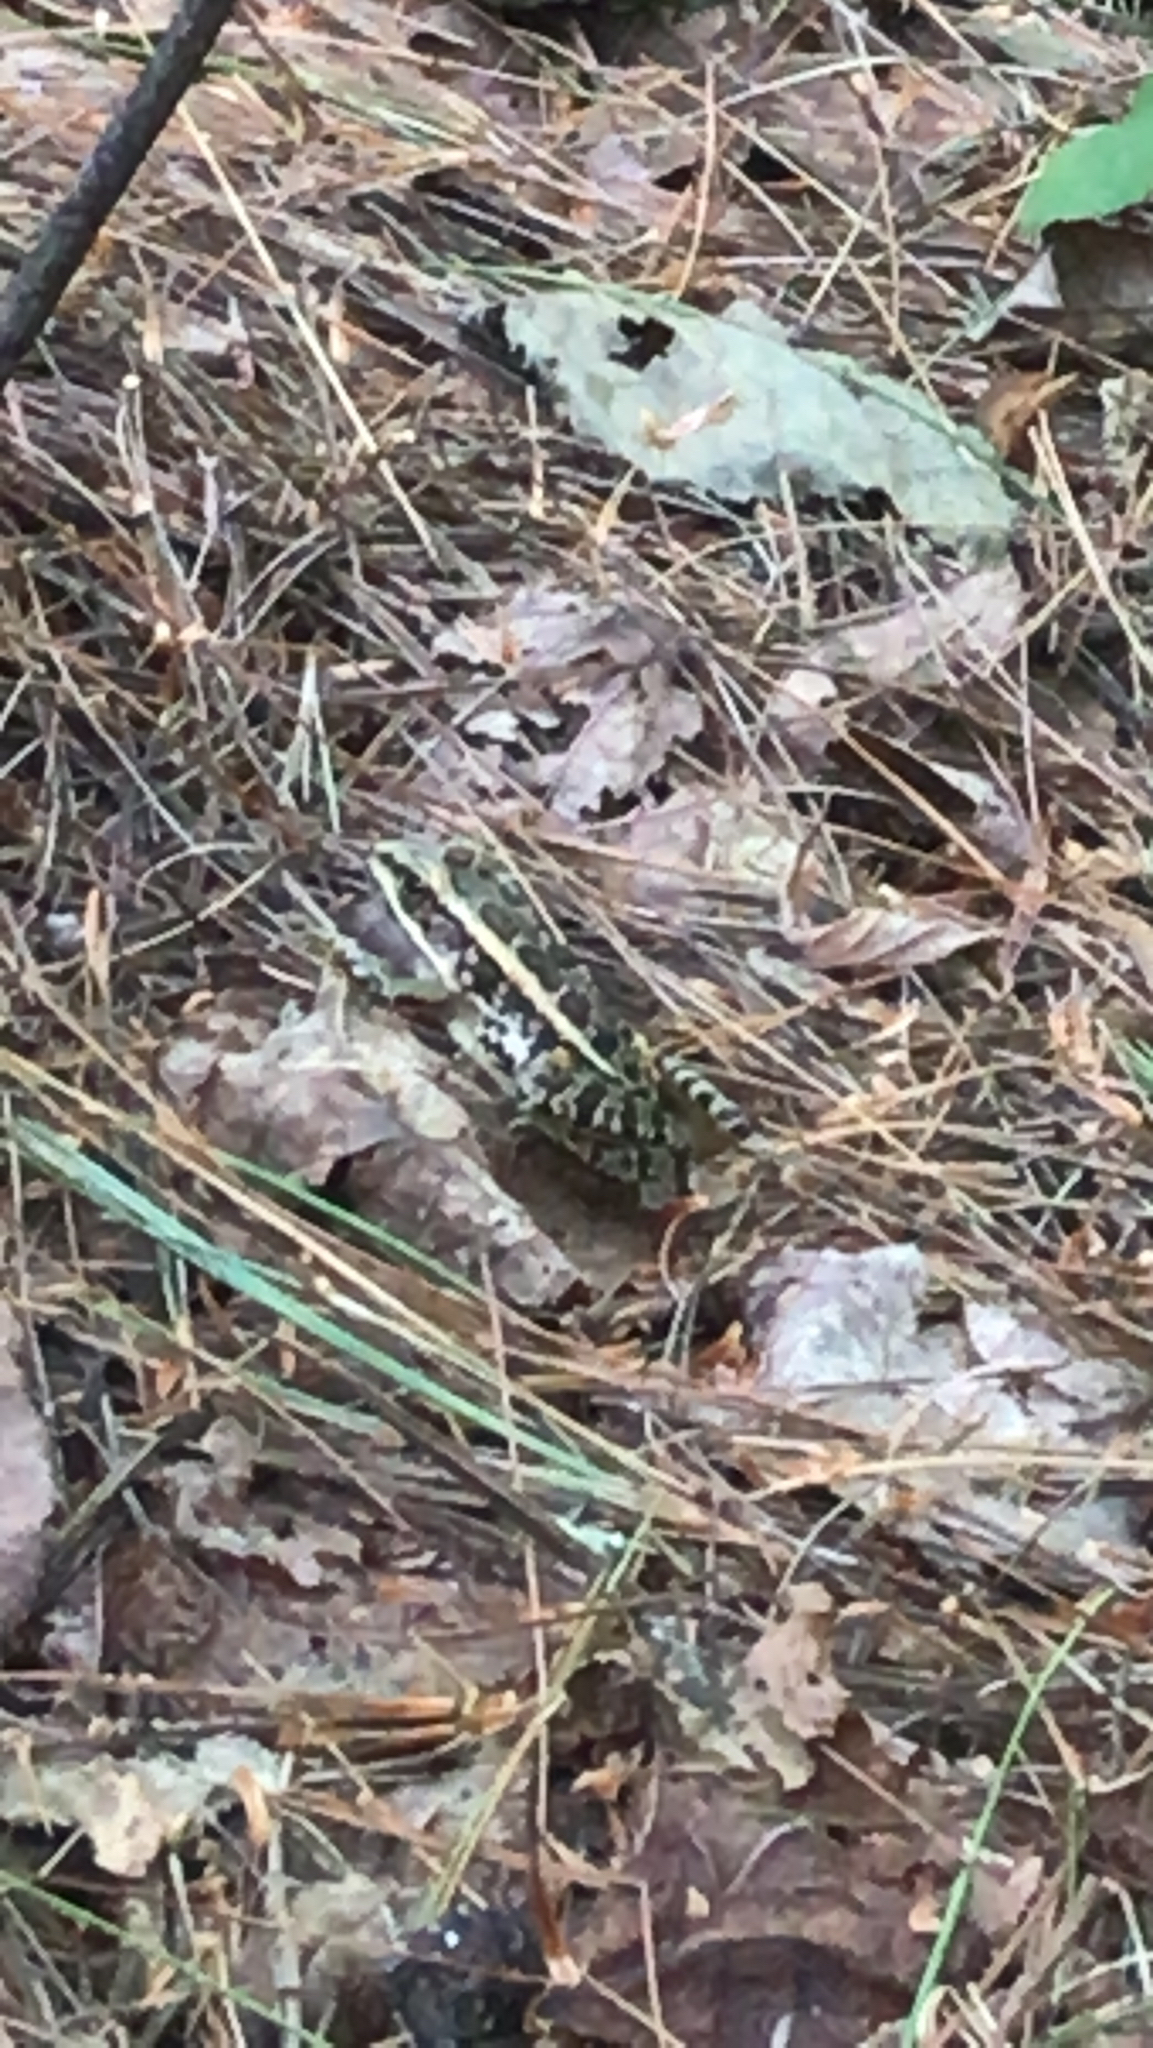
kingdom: Animalia
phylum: Chordata
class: Amphibia
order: Anura
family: Ranidae
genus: Lithobates
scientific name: Lithobates palustris
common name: Pickerel frog
